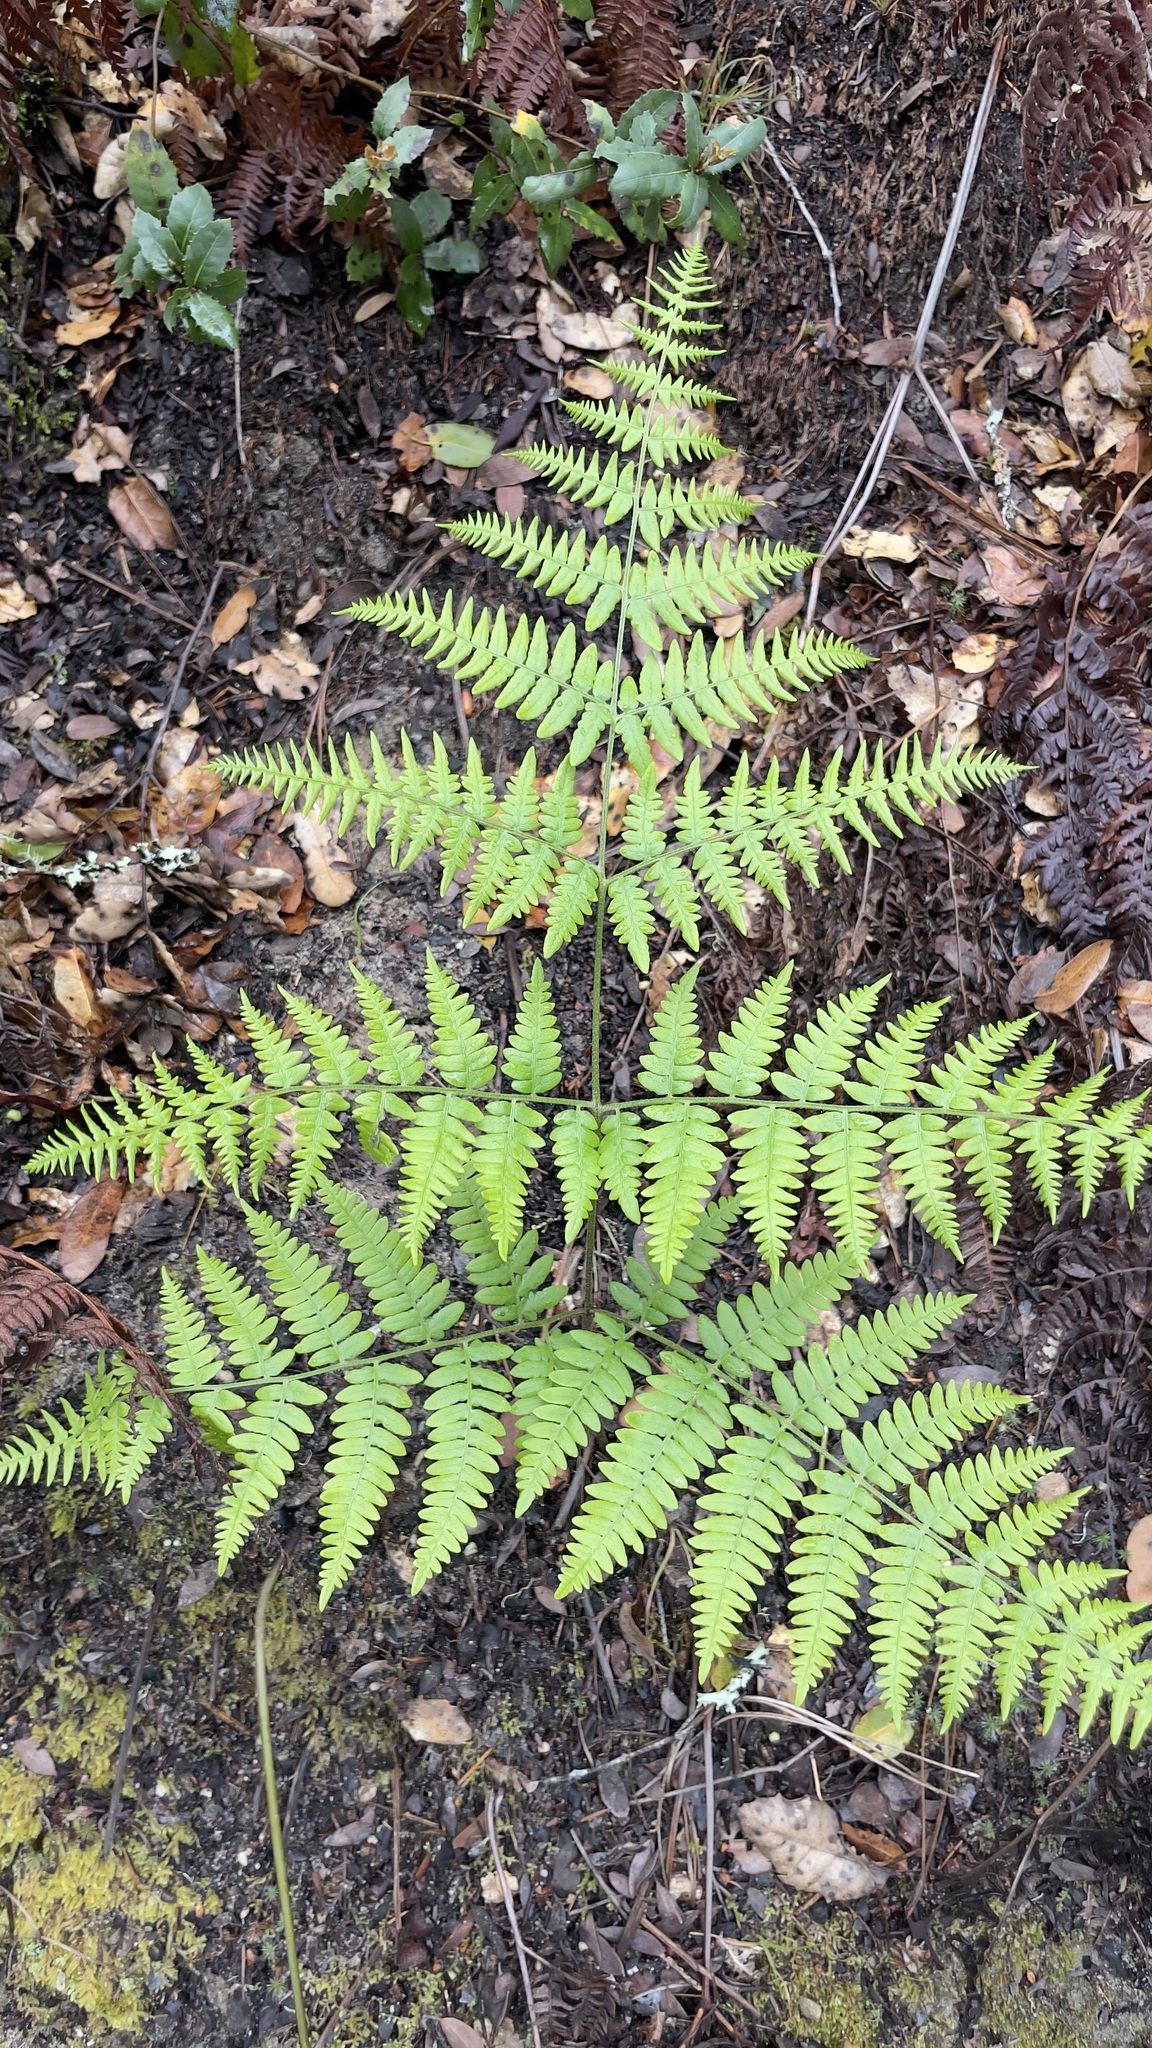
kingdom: Plantae
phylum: Tracheophyta
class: Polypodiopsida
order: Polypodiales
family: Dennstaedtiaceae
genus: Pteridium
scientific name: Pteridium aquilinum
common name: Bracken
